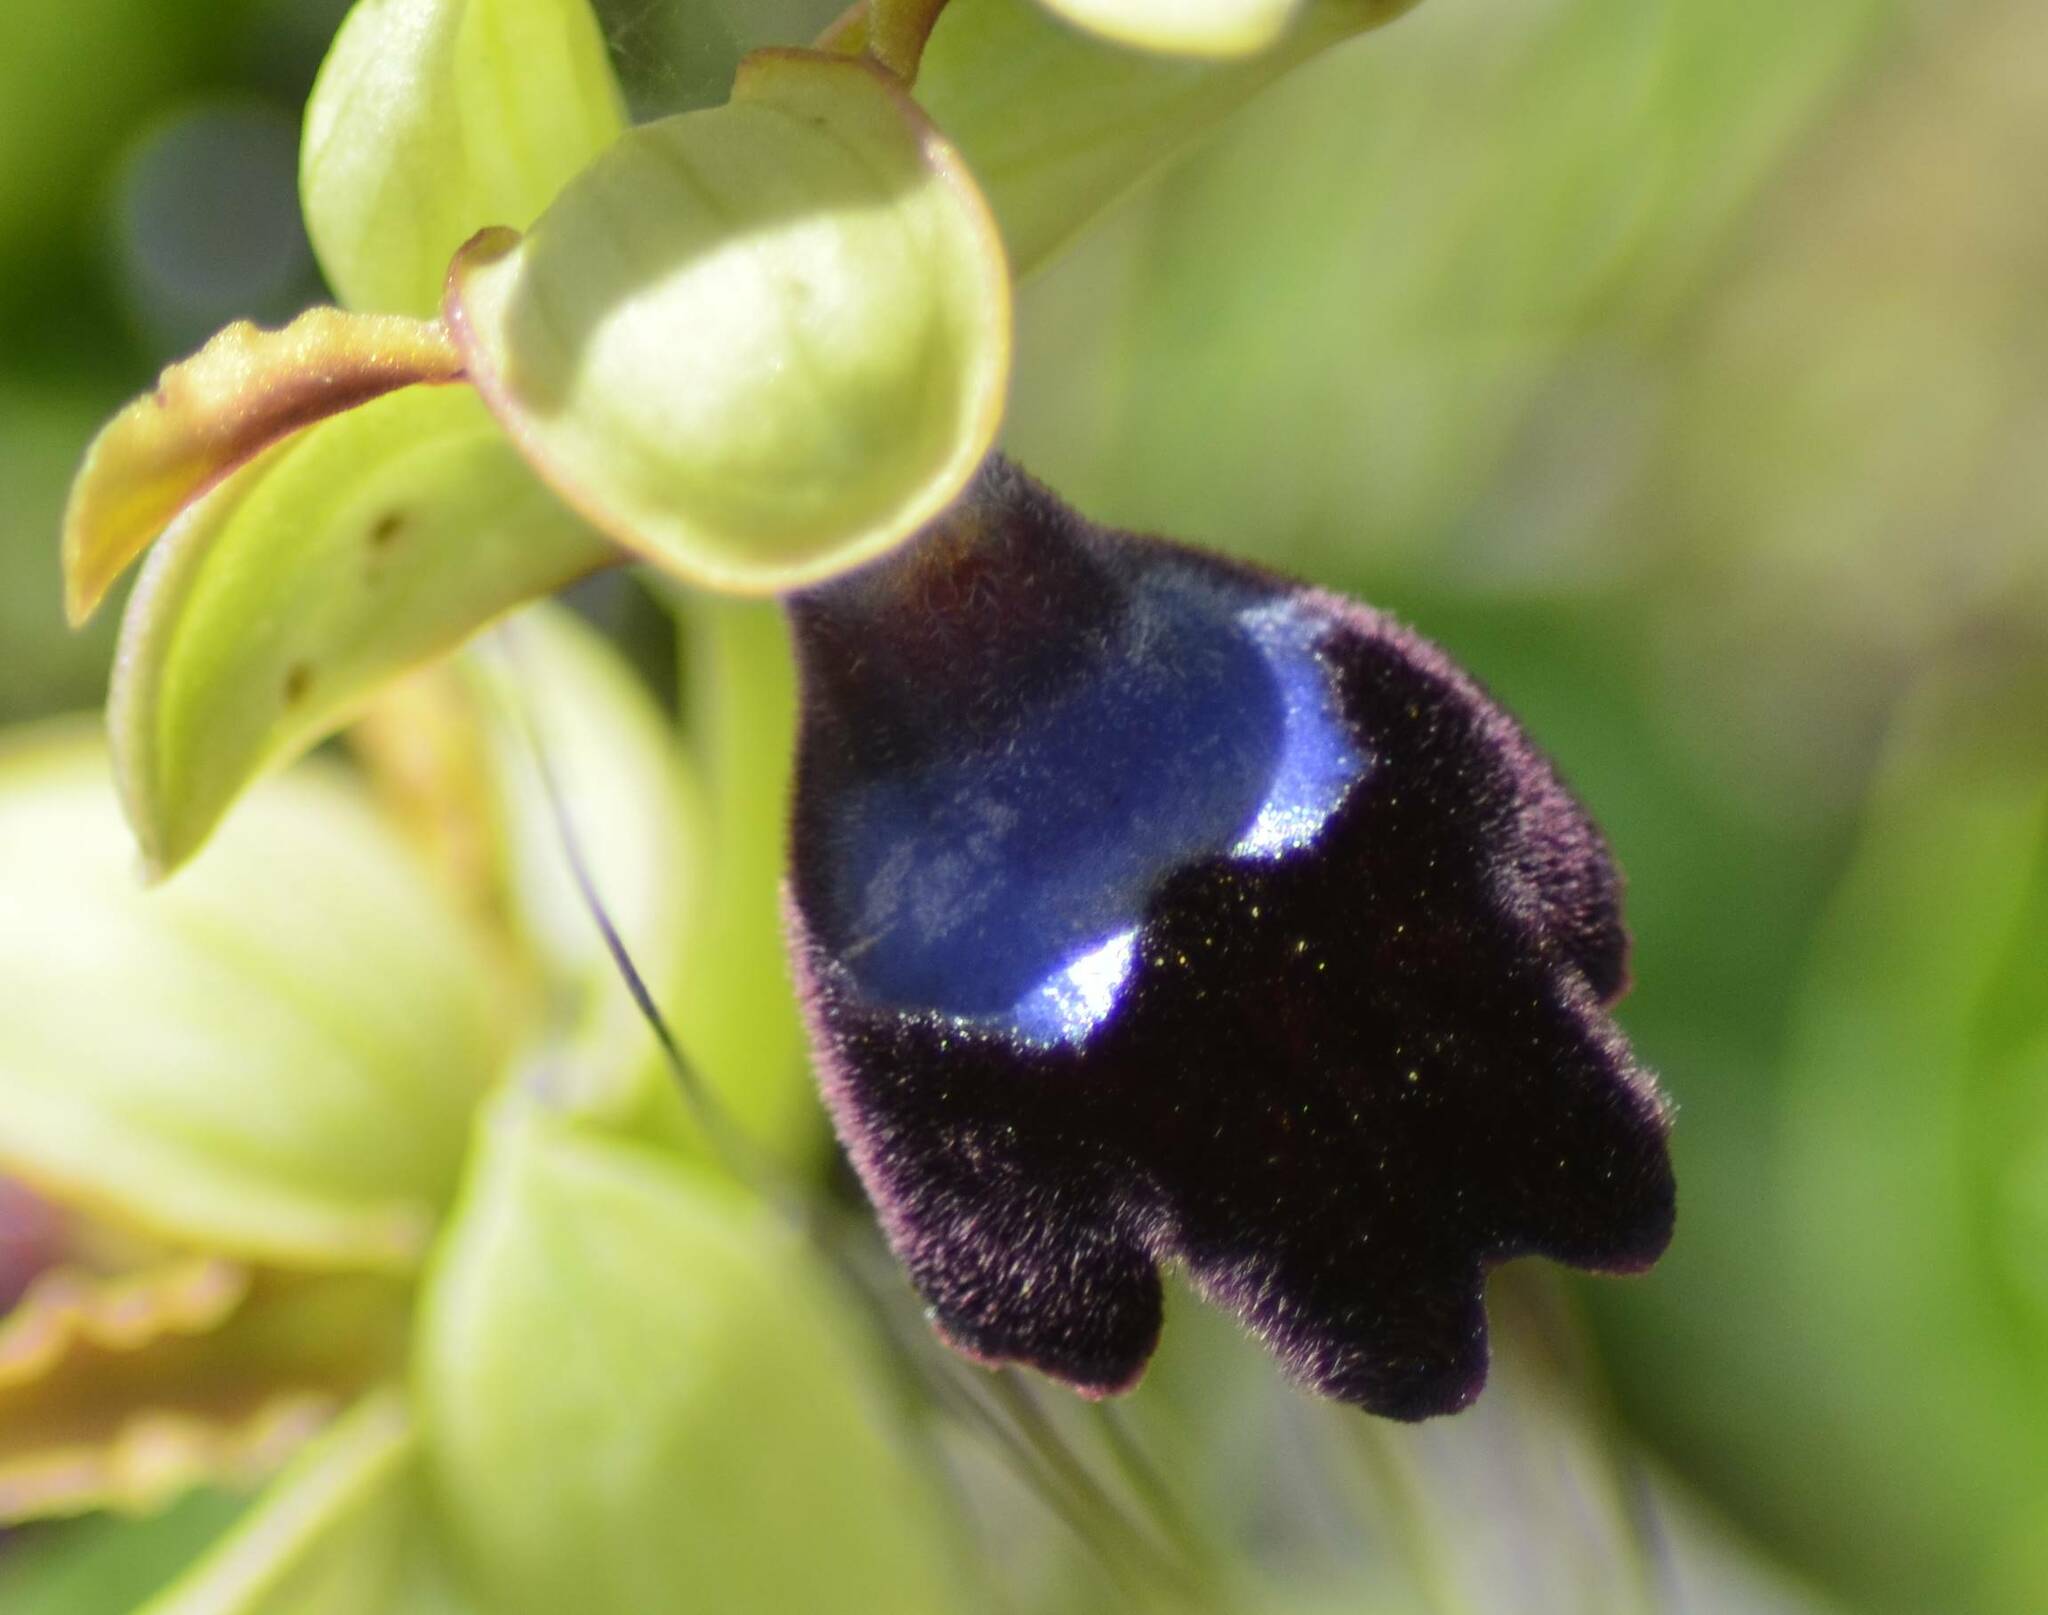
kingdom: Plantae
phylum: Tracheophyta
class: Liliopsida
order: Asparagales
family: Orchidaceae
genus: Ophrys
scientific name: Ophrys atlantica
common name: Atlantic ophrys
